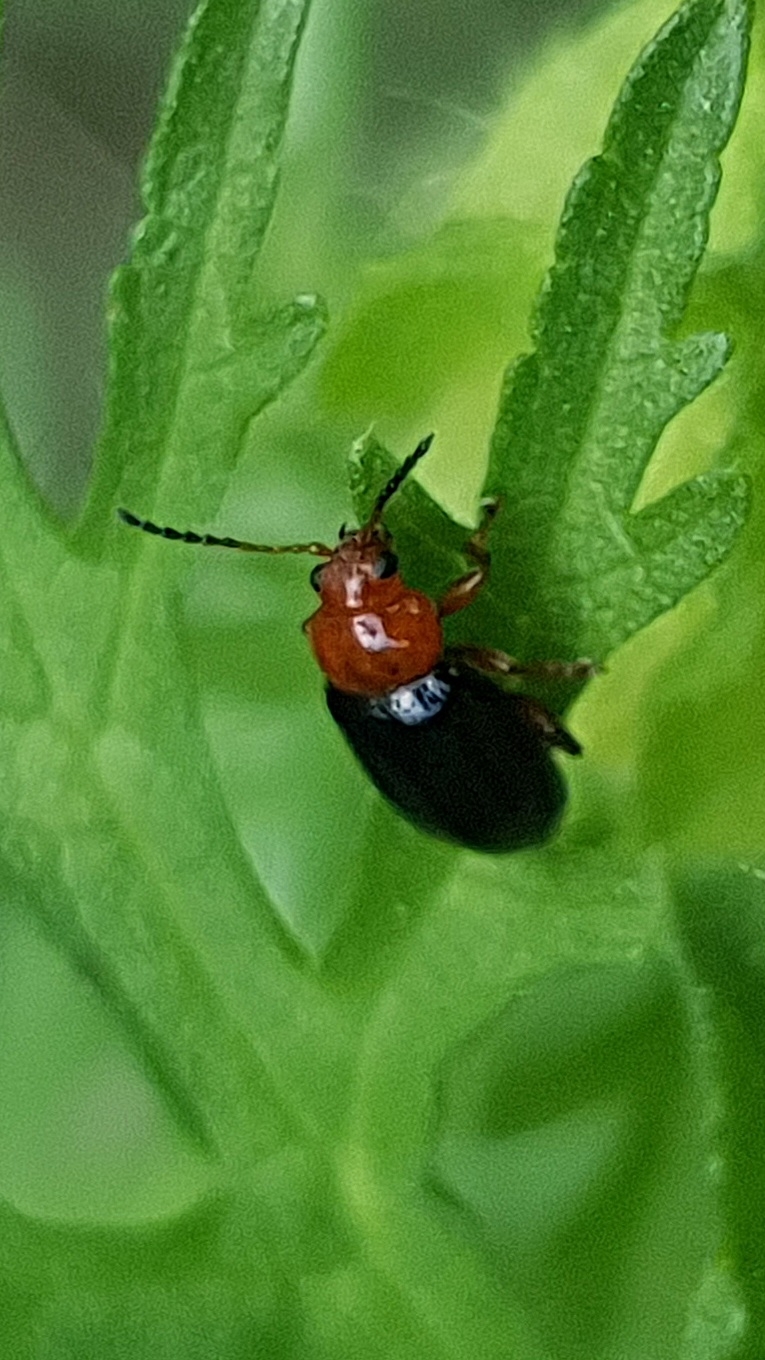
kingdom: Animalia
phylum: Arthropoda
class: Insecta
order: Coleoptera
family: Chrysomelidae
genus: Podagrica
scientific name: Podagrica fuscicornis
